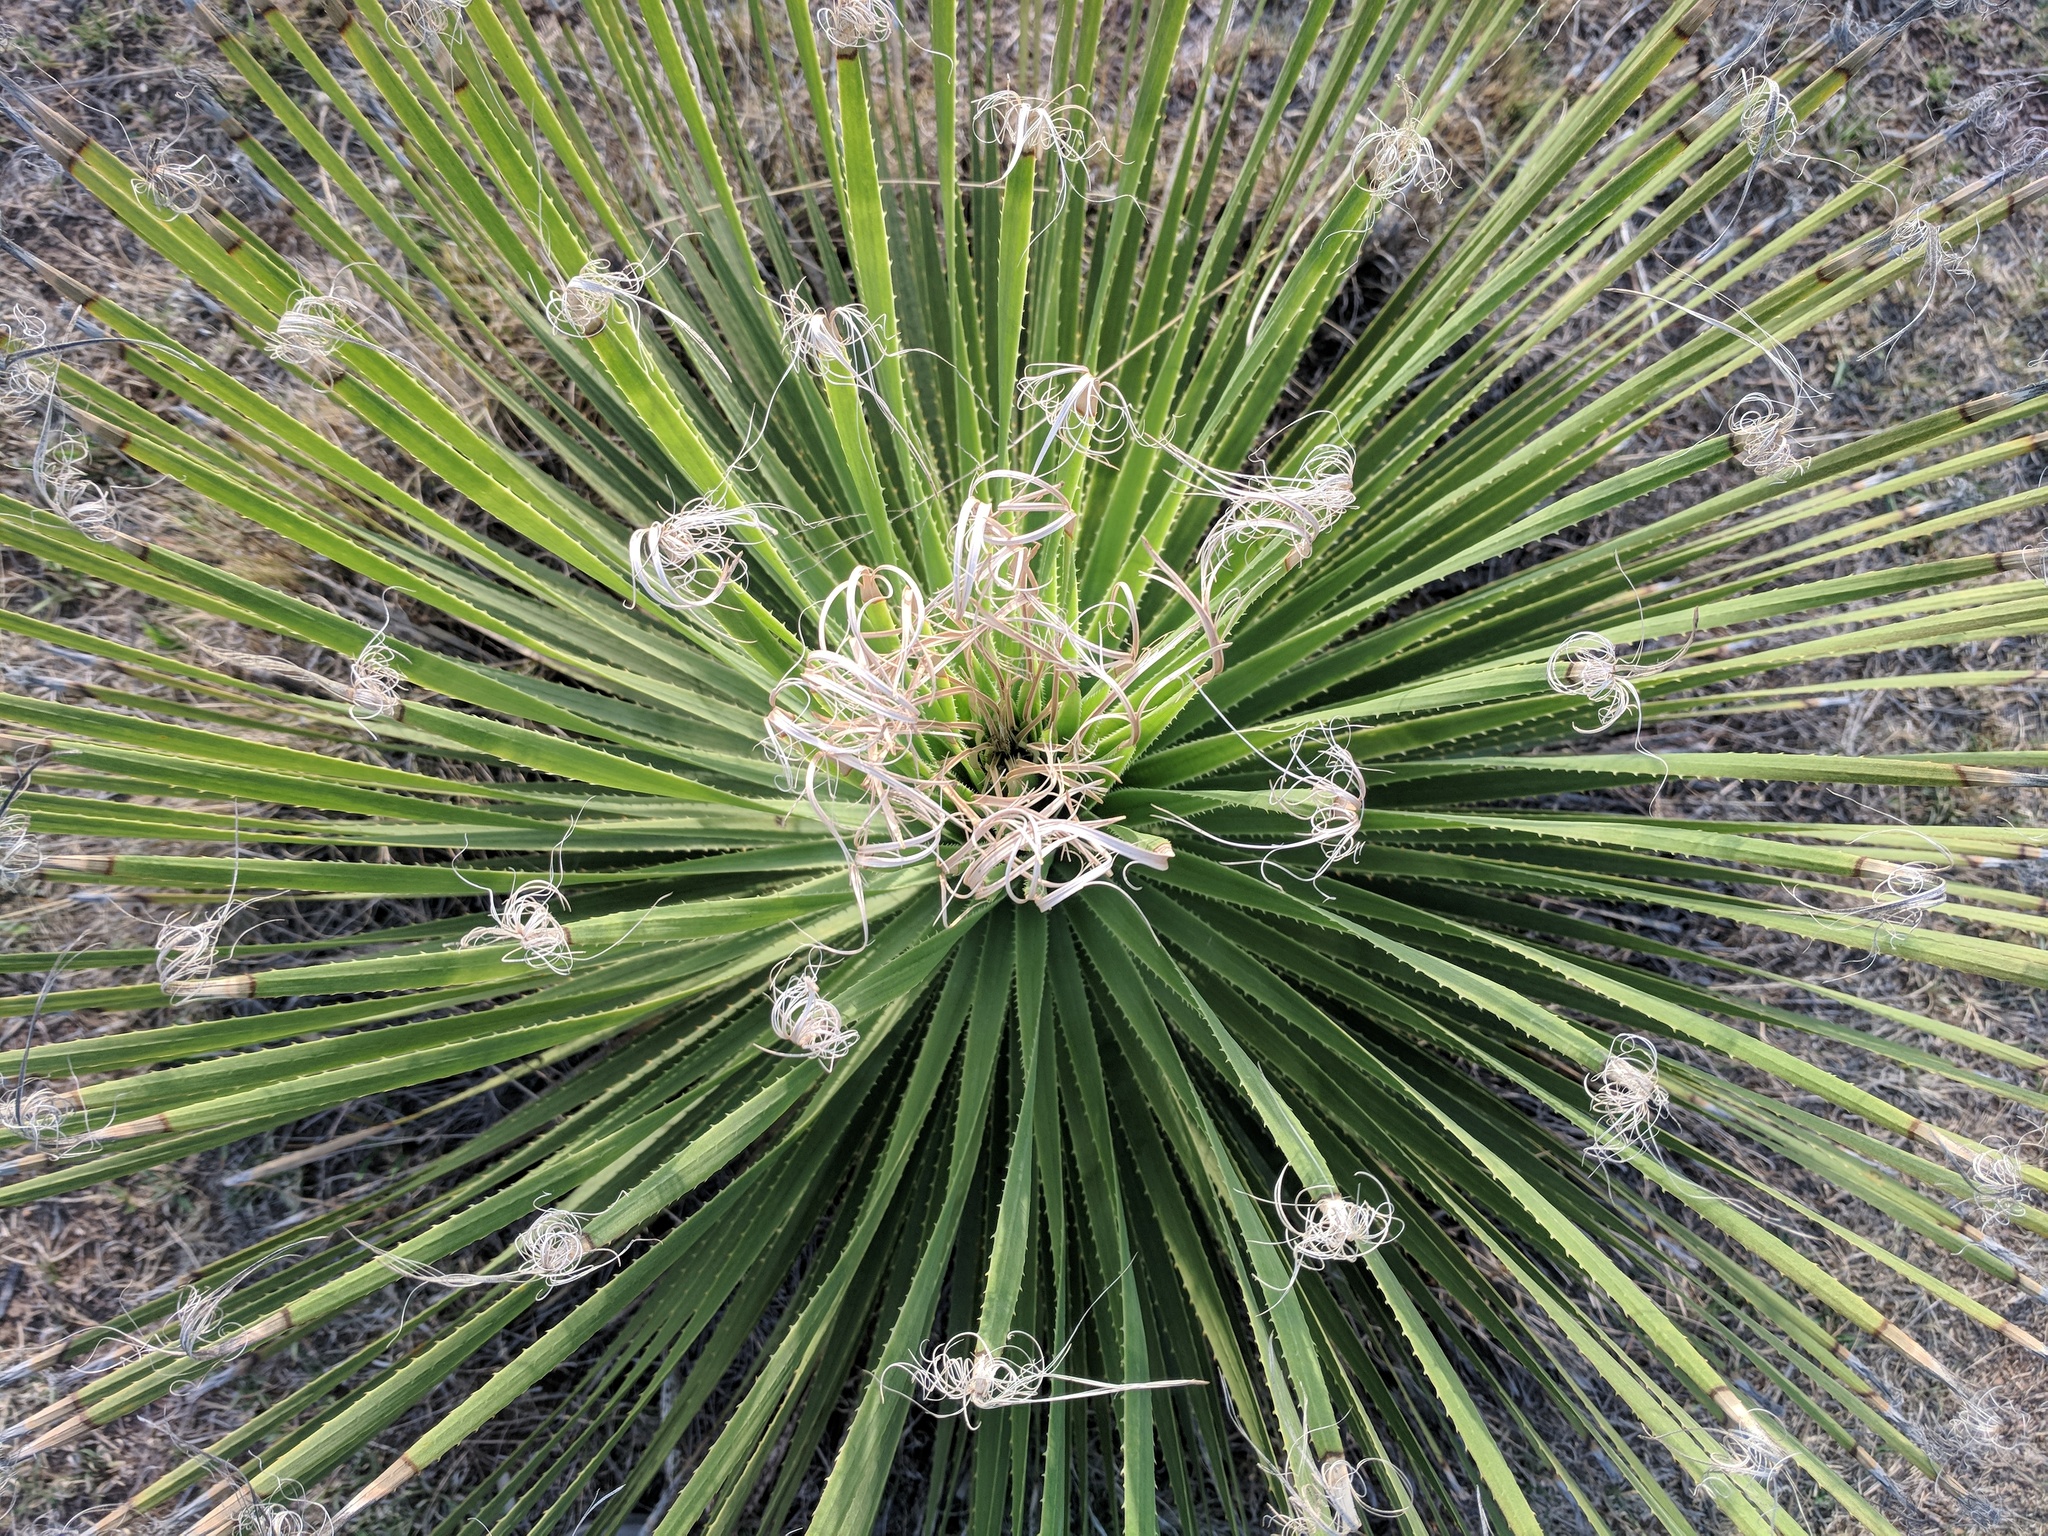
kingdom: Plantae
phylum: Tracheophyta
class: Liliopsida
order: Asparagales
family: Asparagaceae
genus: Dasylirion
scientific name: Dasylirion acrotrichum
